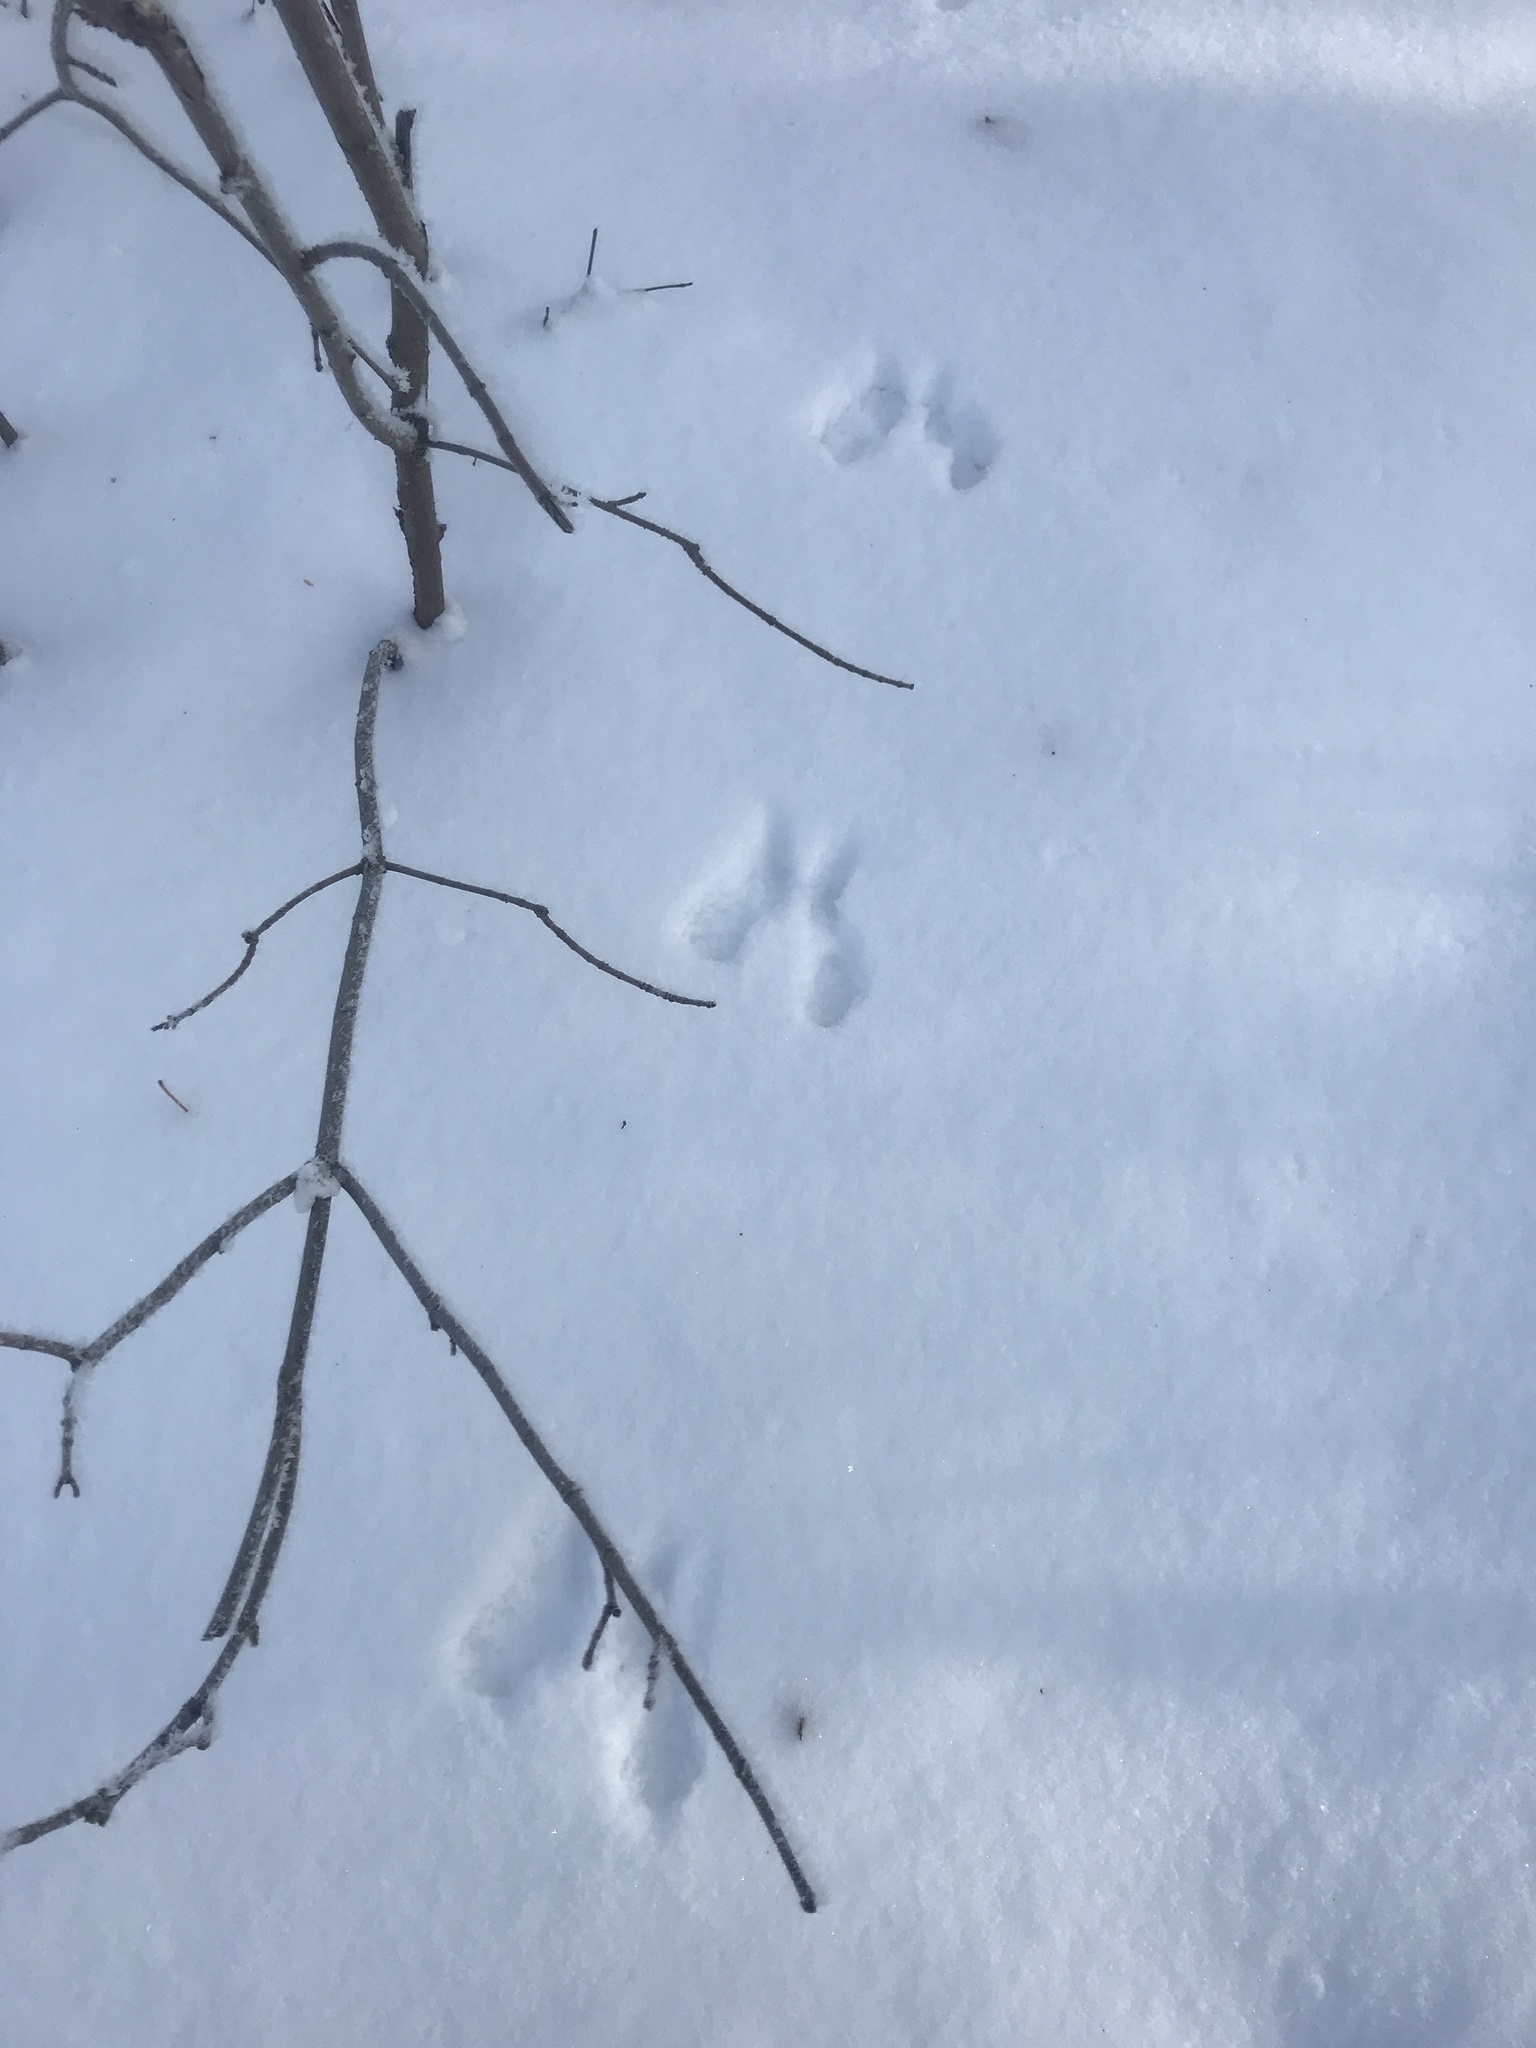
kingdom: Animalia
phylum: Chordata
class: Mammalia
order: Rodentia
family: Sciuridae
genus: Sciurus
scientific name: Sciurus vulgaris
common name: Eurasian red squirrel
